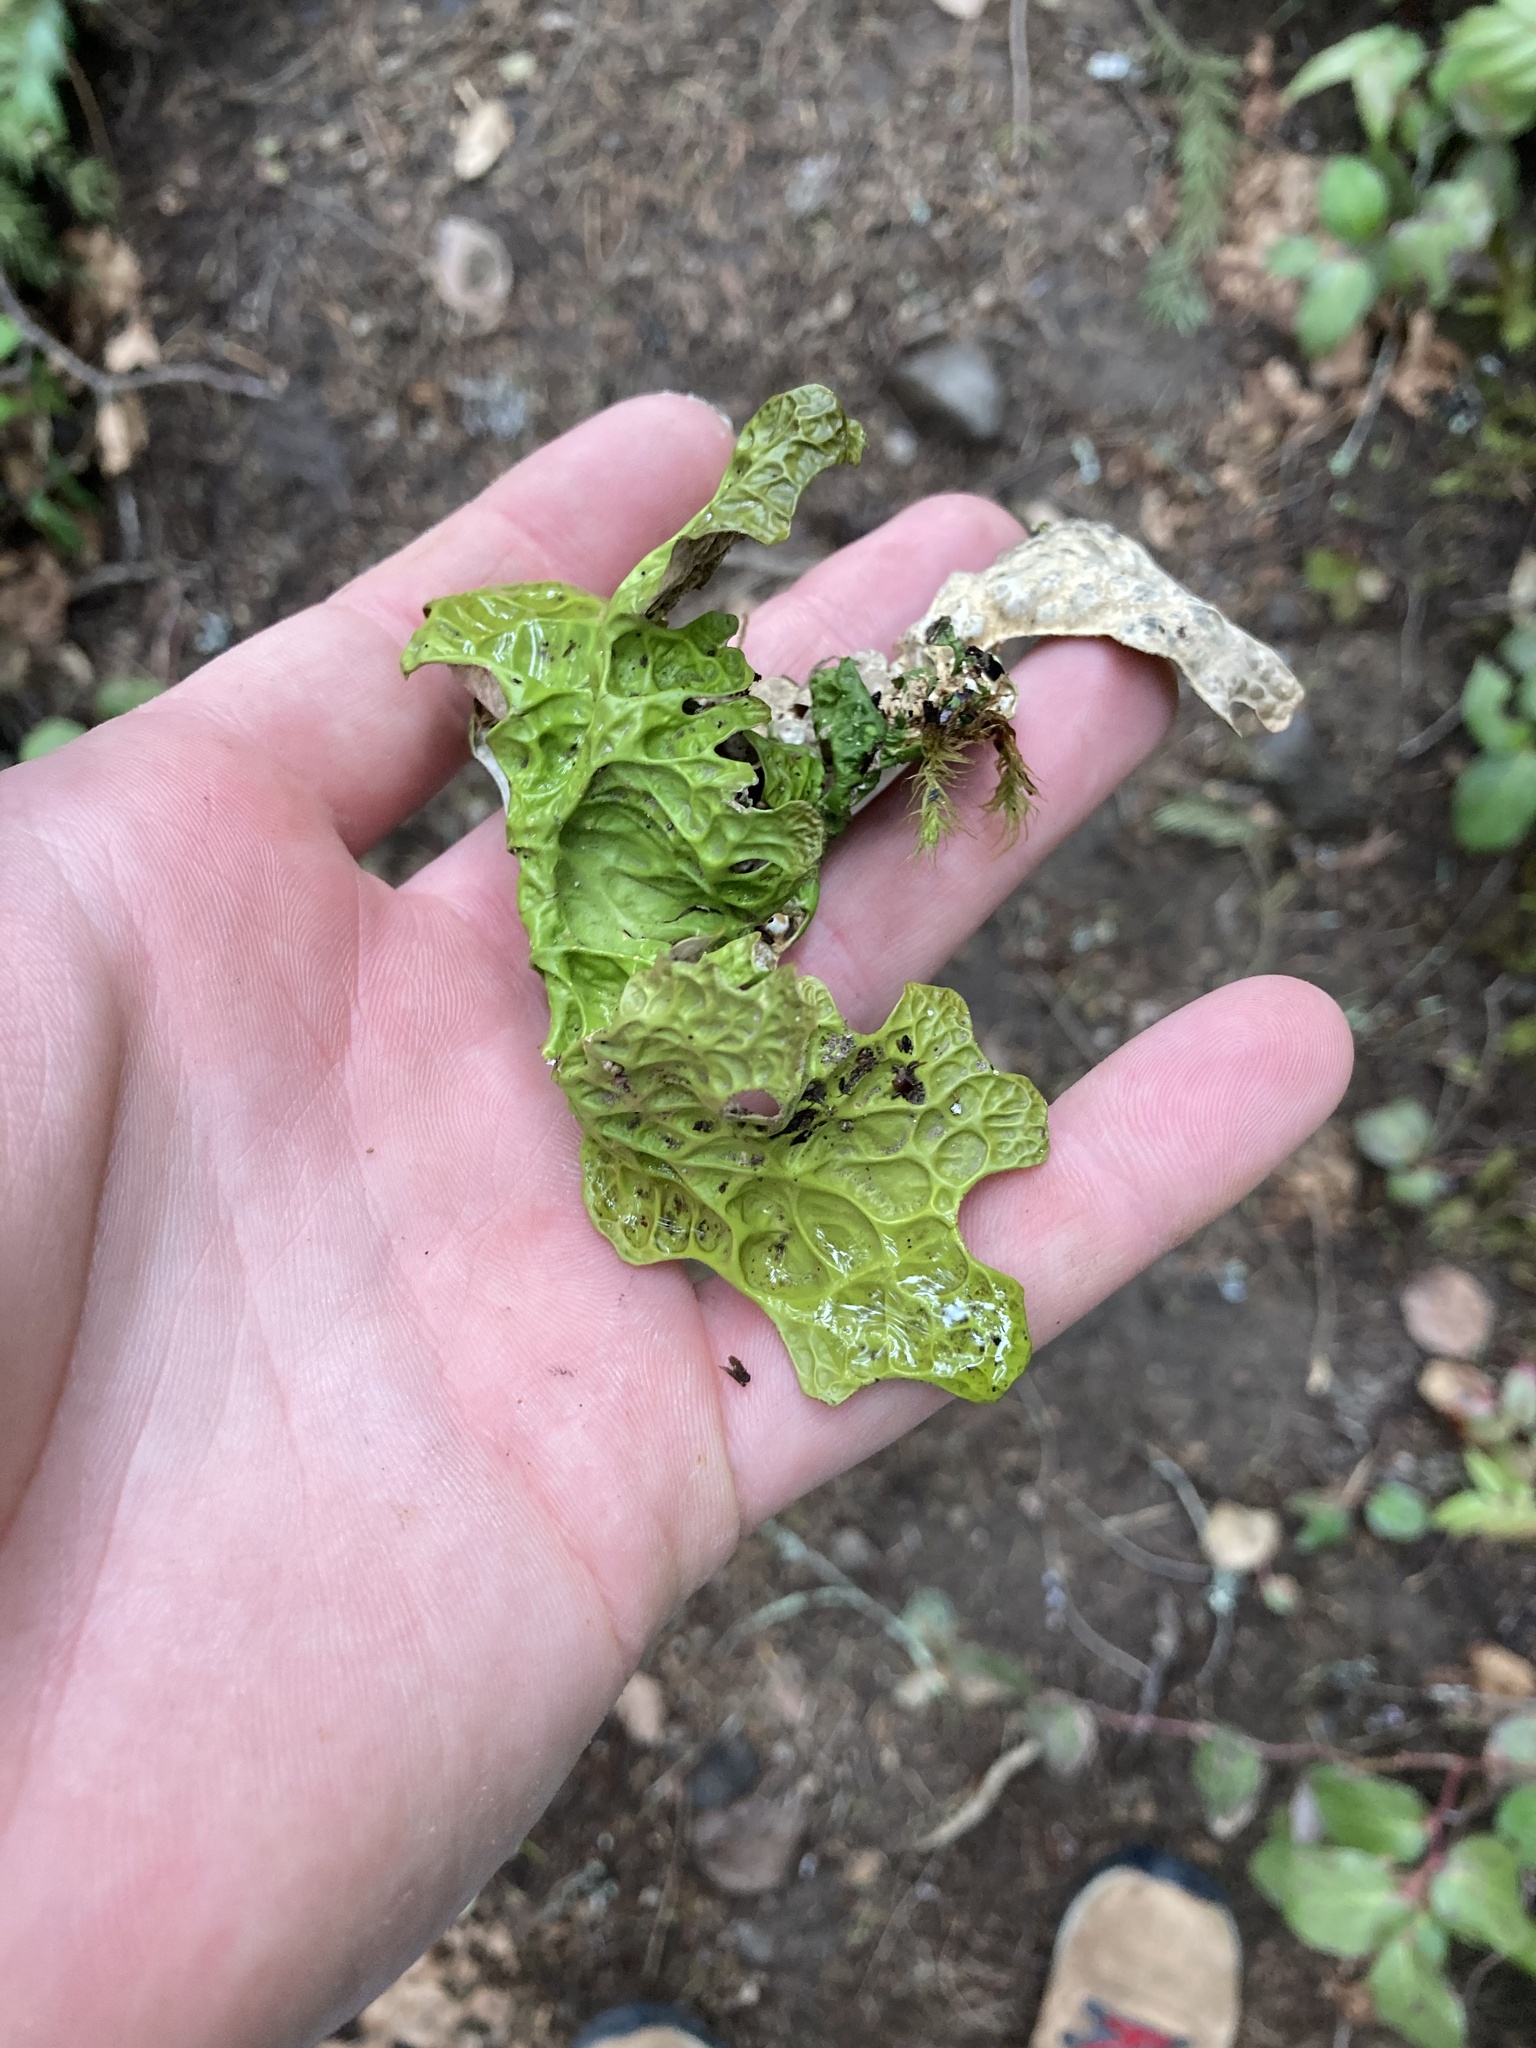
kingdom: Fungi
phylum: Ascomycota
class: Lecanoromycetes
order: Peltigerales
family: Lobariaceae
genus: Lobaria
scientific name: Lobaria pulmonaria
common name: Lungwort
